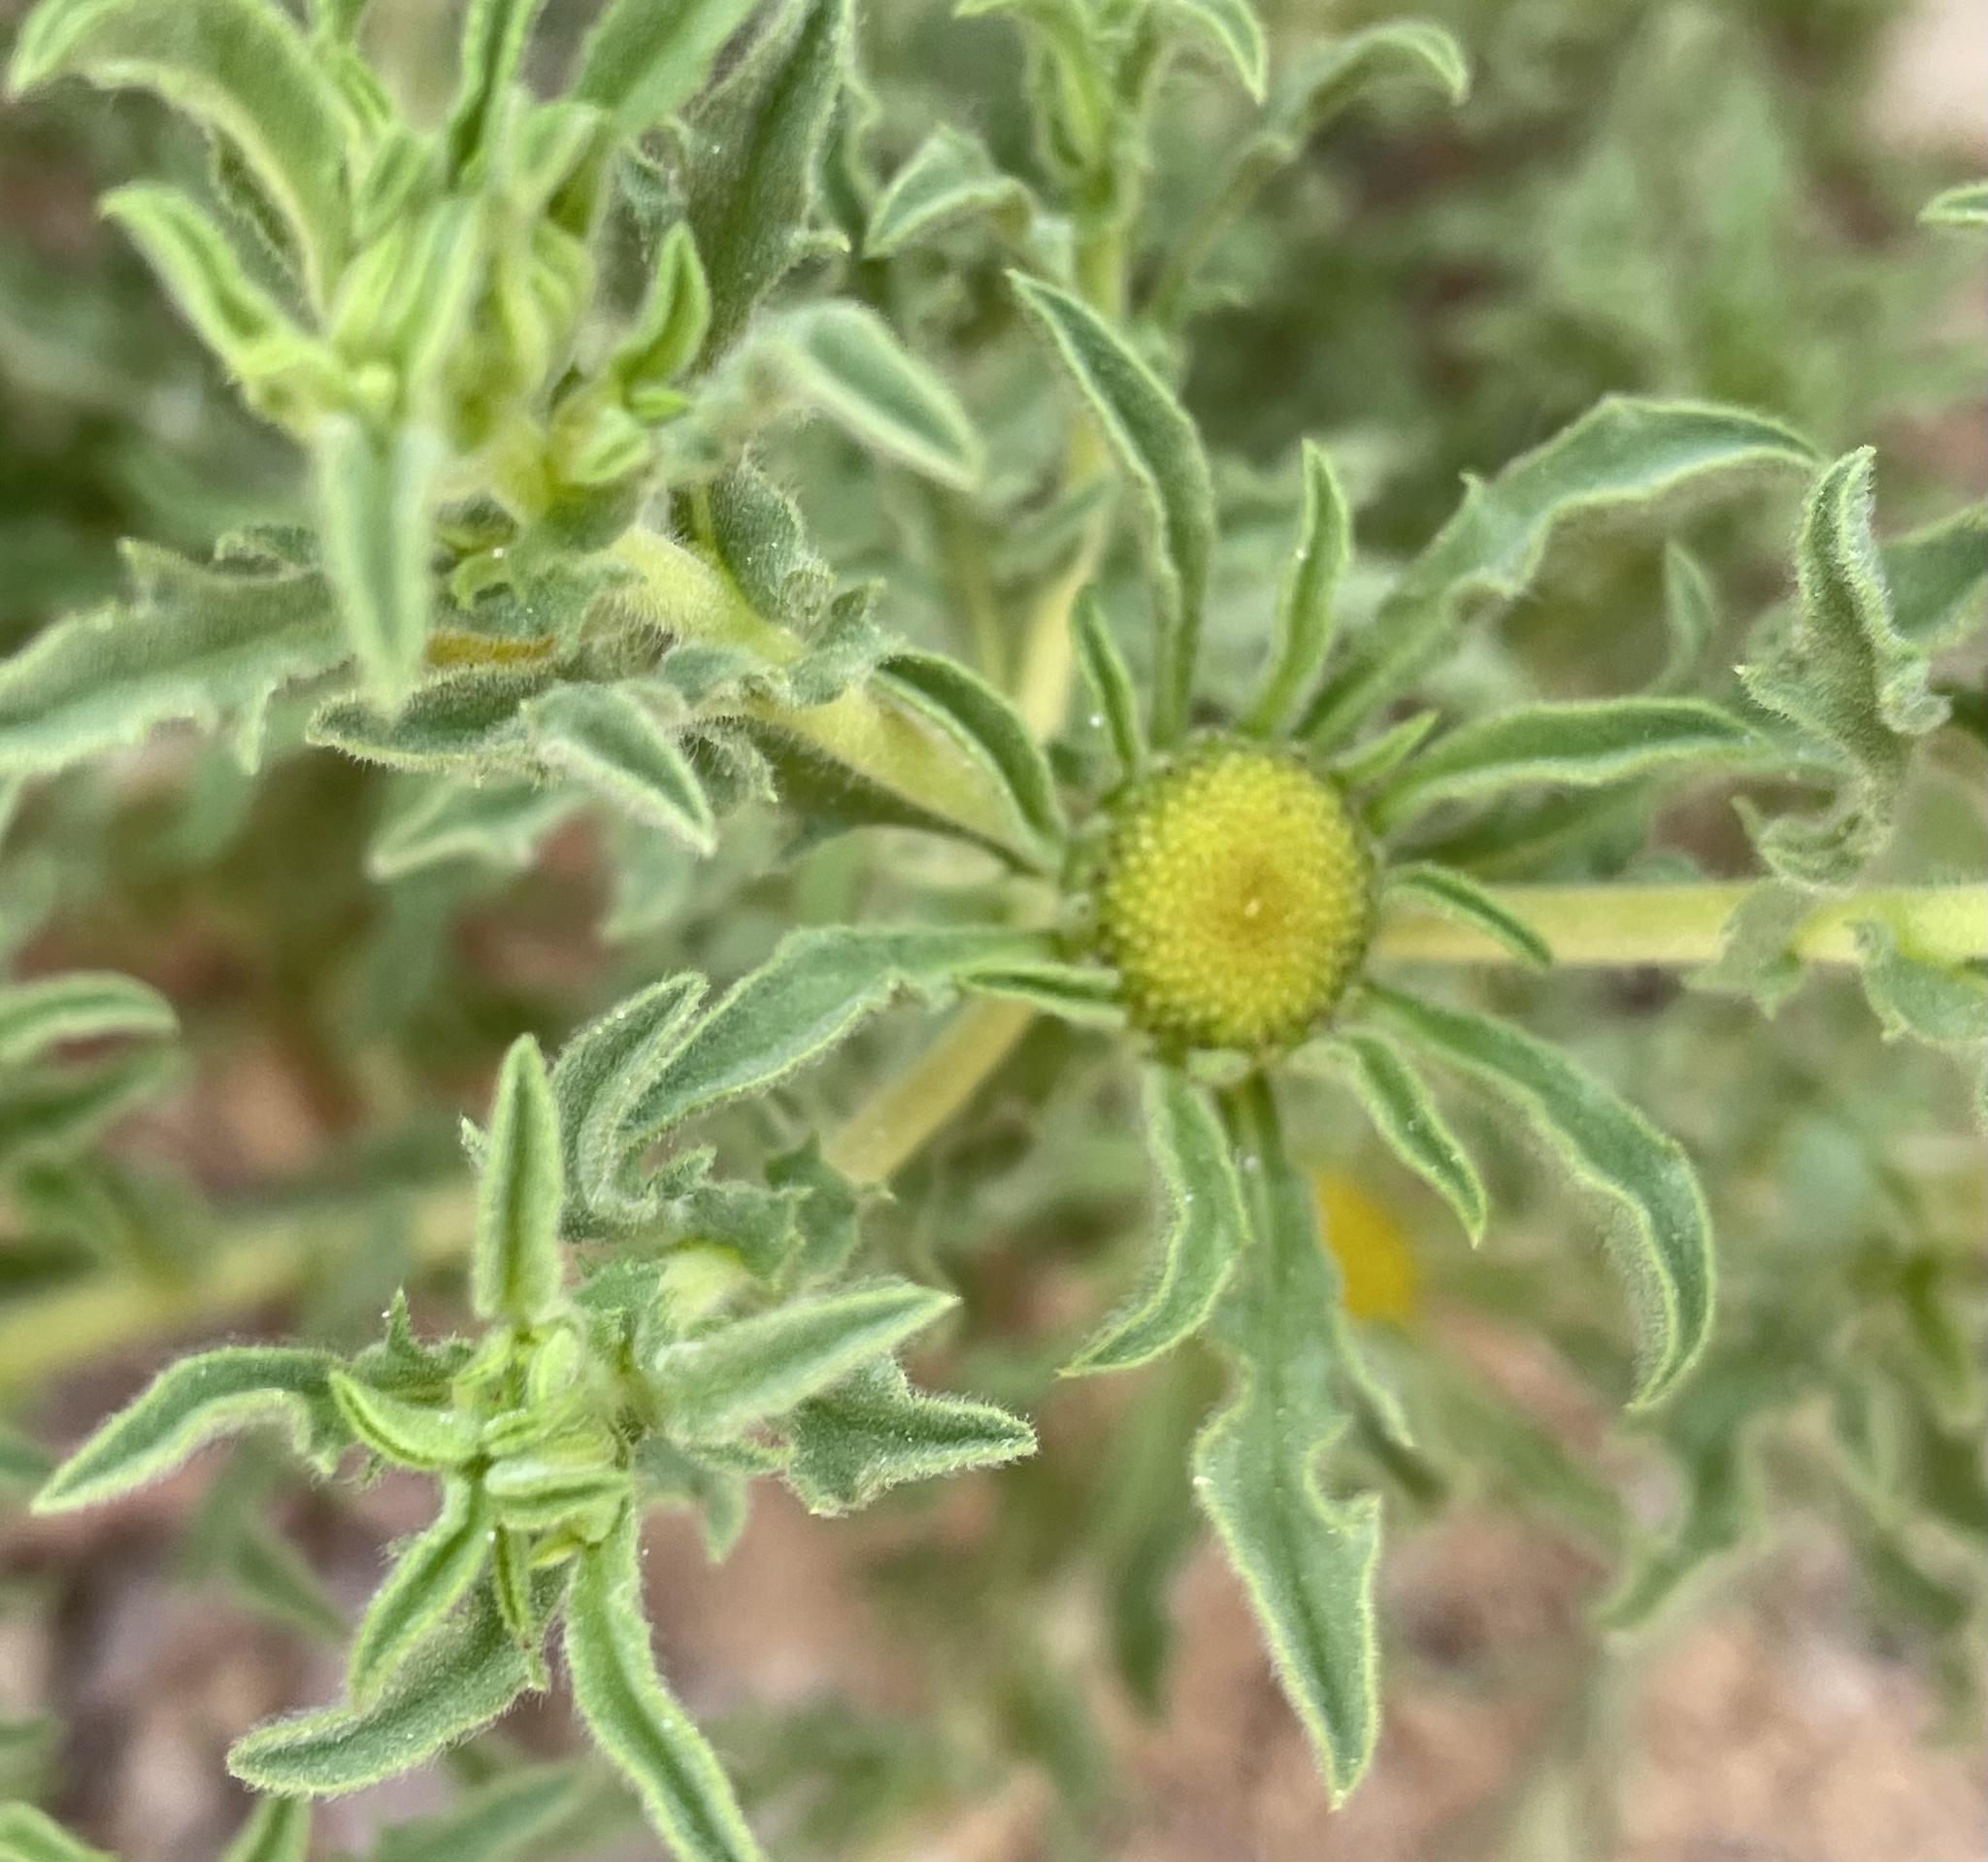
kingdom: Plantae
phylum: Tracheophyta
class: Magnoliopsida
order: Asterales
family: Asteraceae
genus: Asteriscus
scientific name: Asteriscus graveolens
